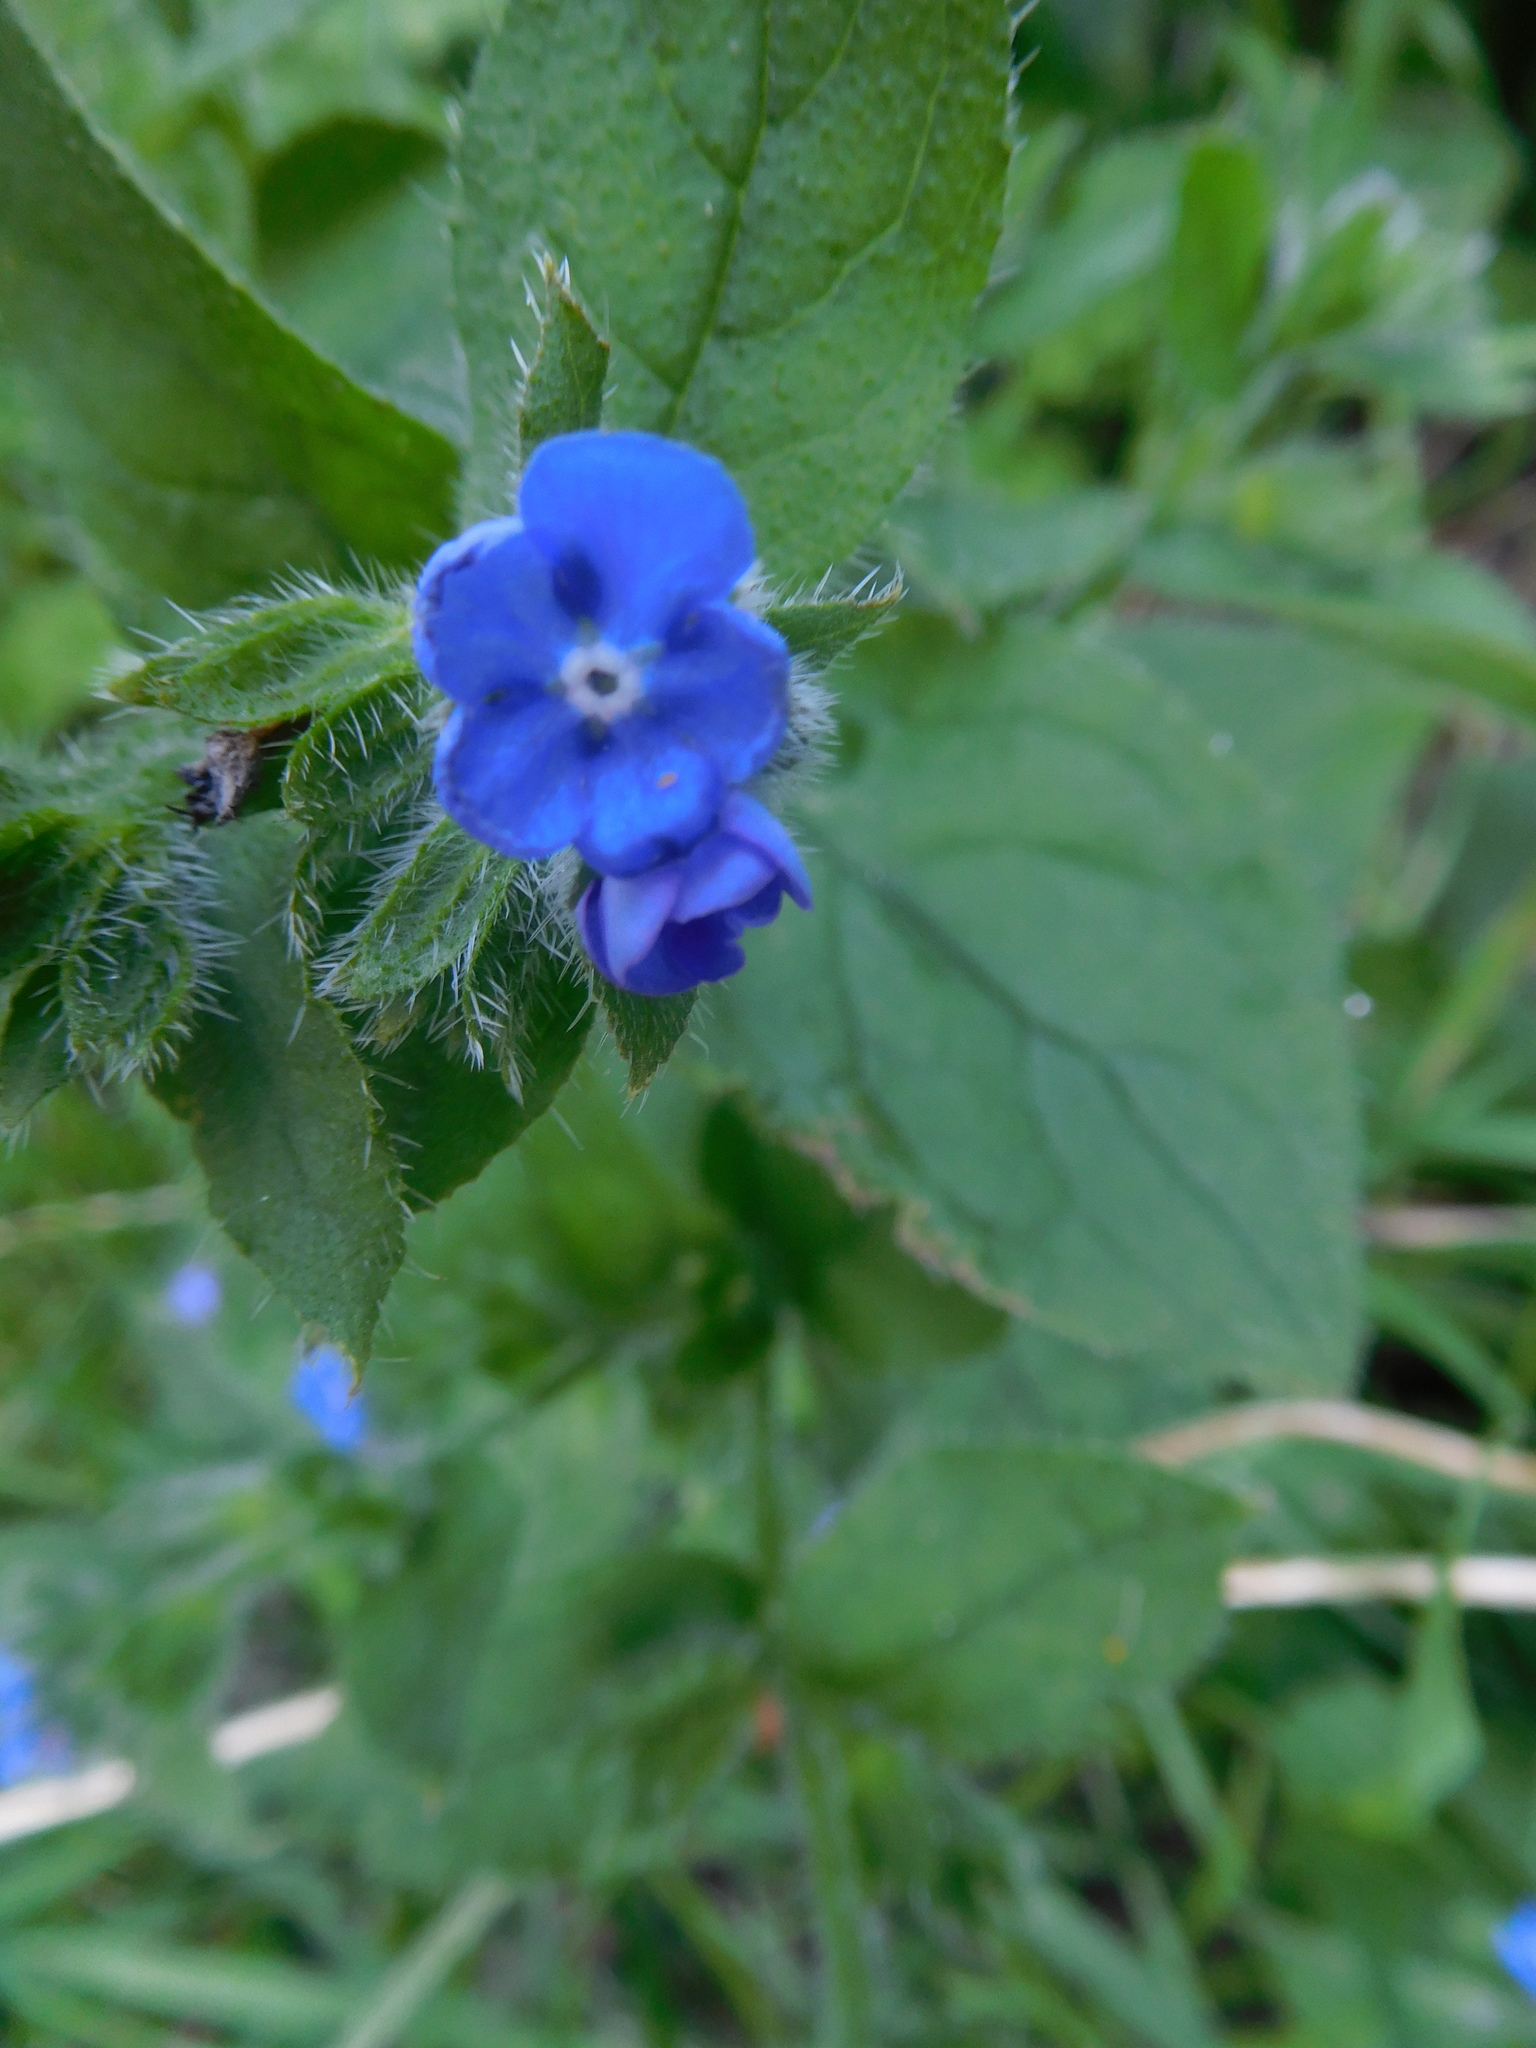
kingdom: Plantae
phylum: Tracheophyta
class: Magnoliopsida
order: Boraginales
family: Boraginaceae
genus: Pentaglottis
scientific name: Pentaglottis sempervirens
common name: Green alkanet
